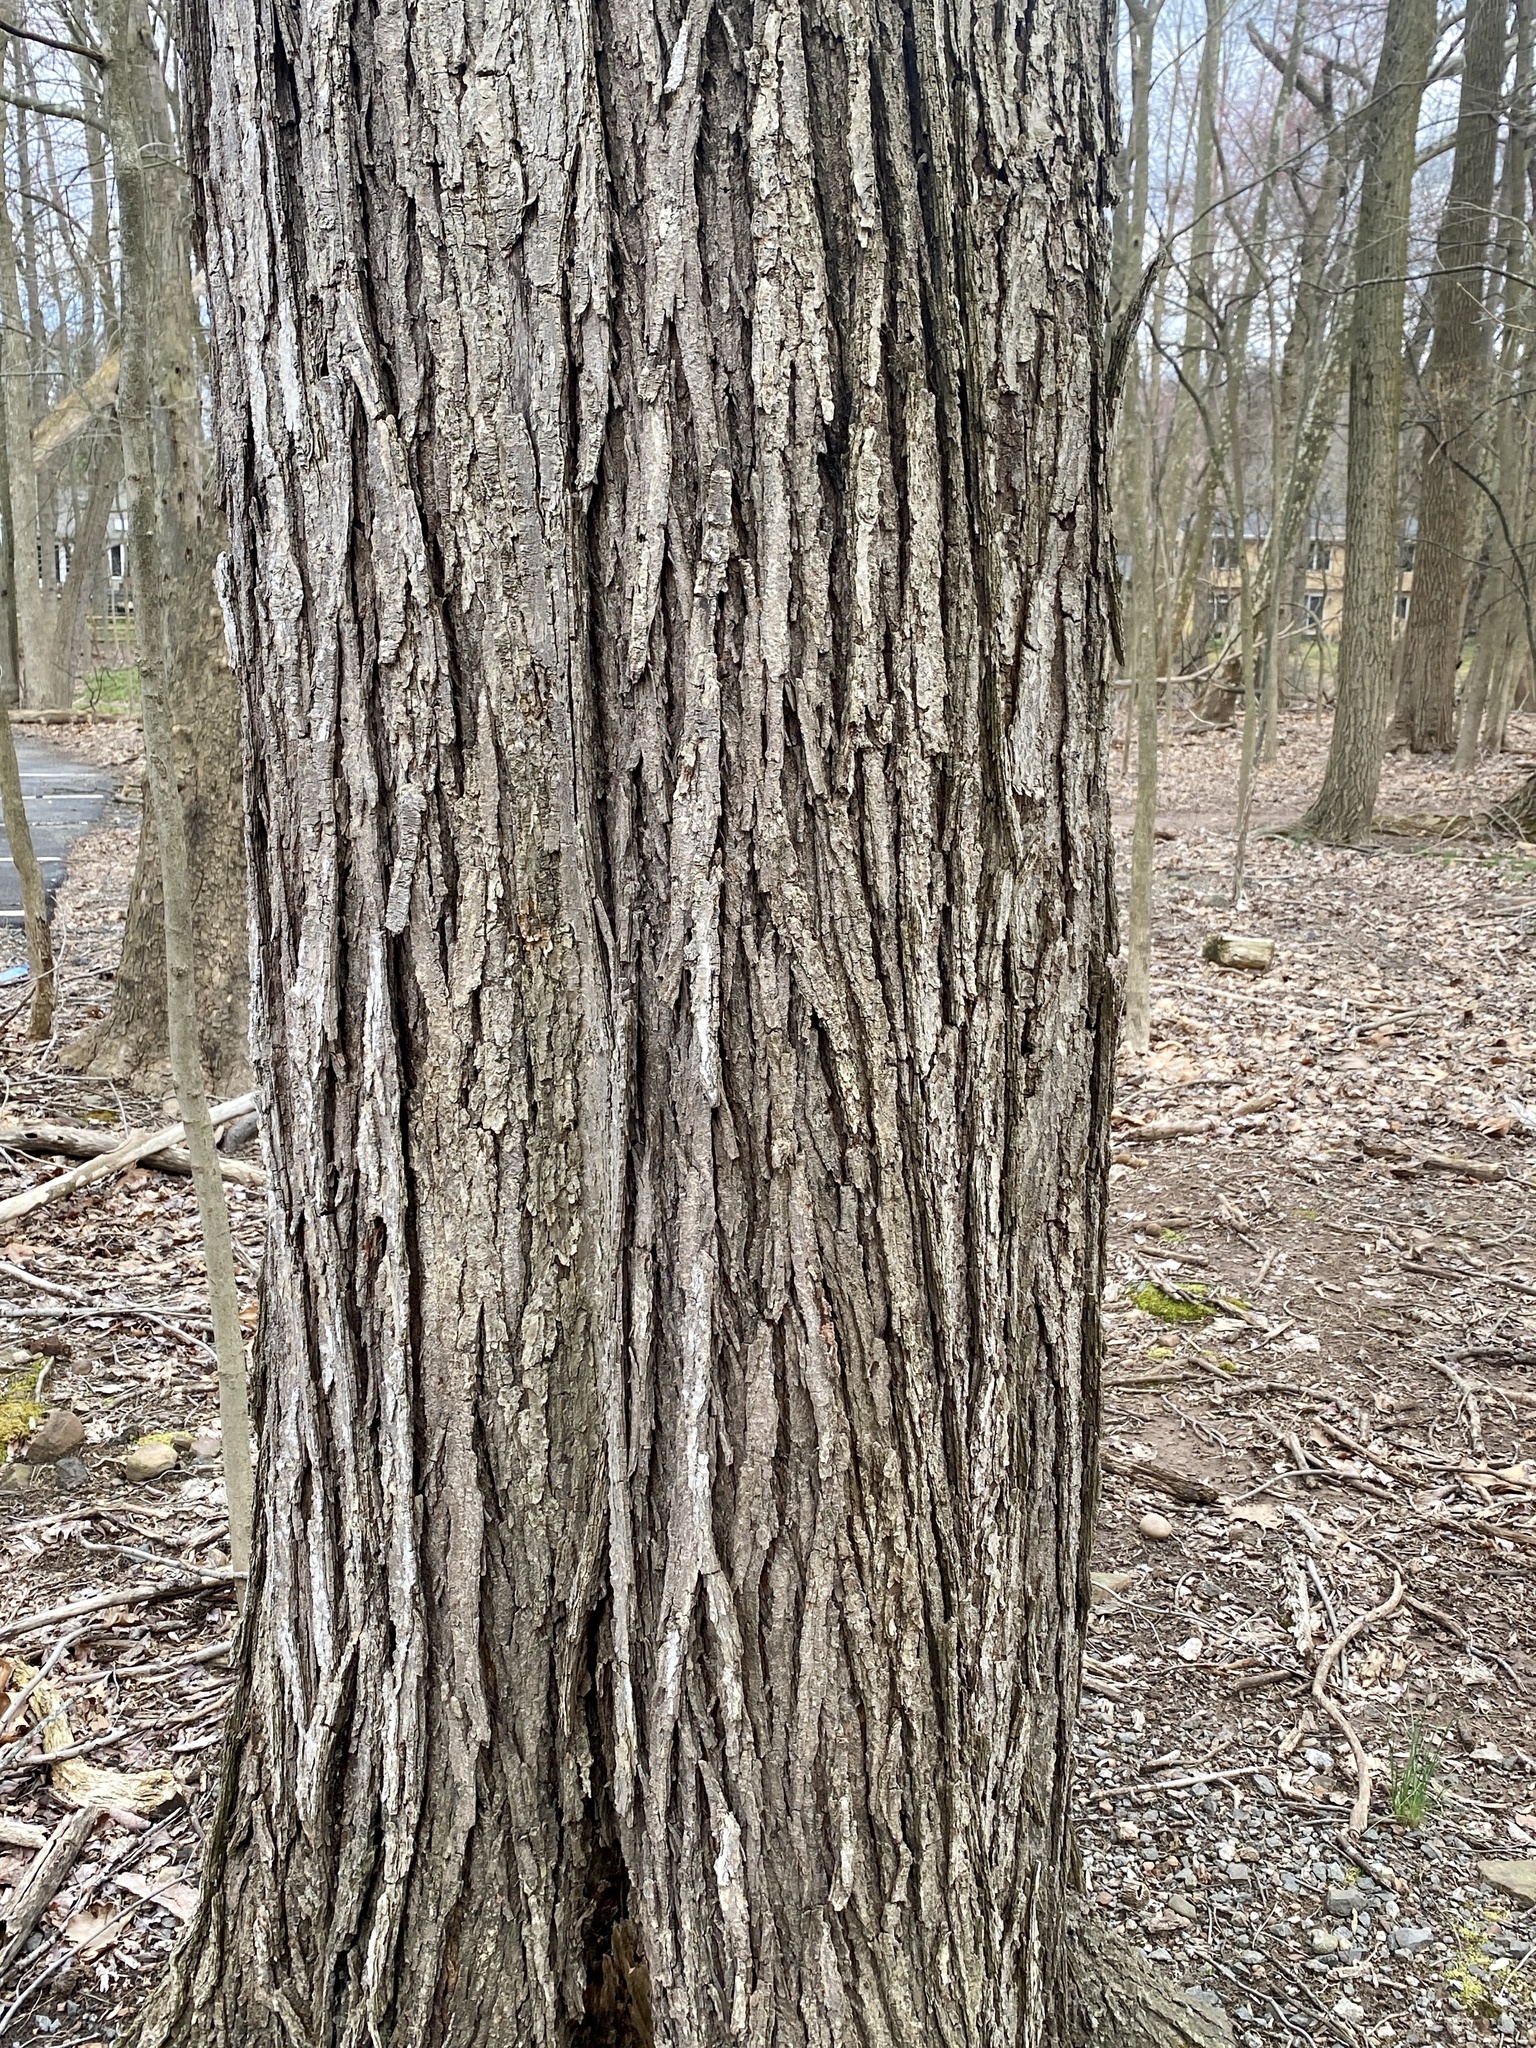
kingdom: Plantae
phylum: Tracheophyta
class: Magnoliopsida
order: Sapindales
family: Sapindaceae
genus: Acer
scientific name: Acer rubrum
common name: Red maple
